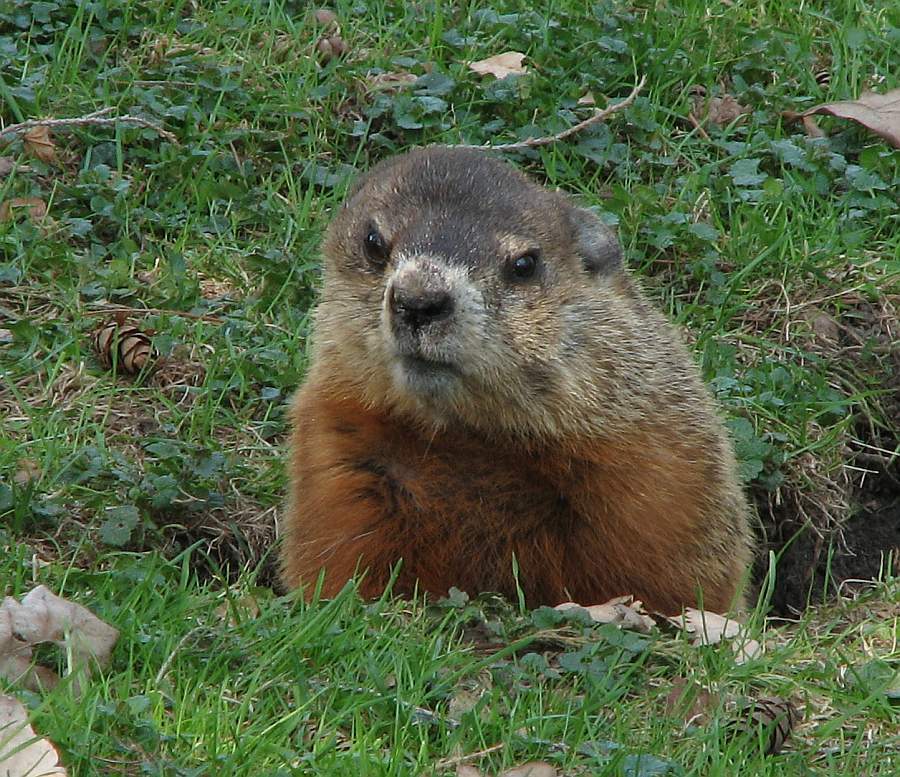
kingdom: Animalia
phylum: Chordata
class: Mammalia
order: Rodentia
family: Sciuridae
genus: Marmota
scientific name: Marmota monax
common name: Groundhog
